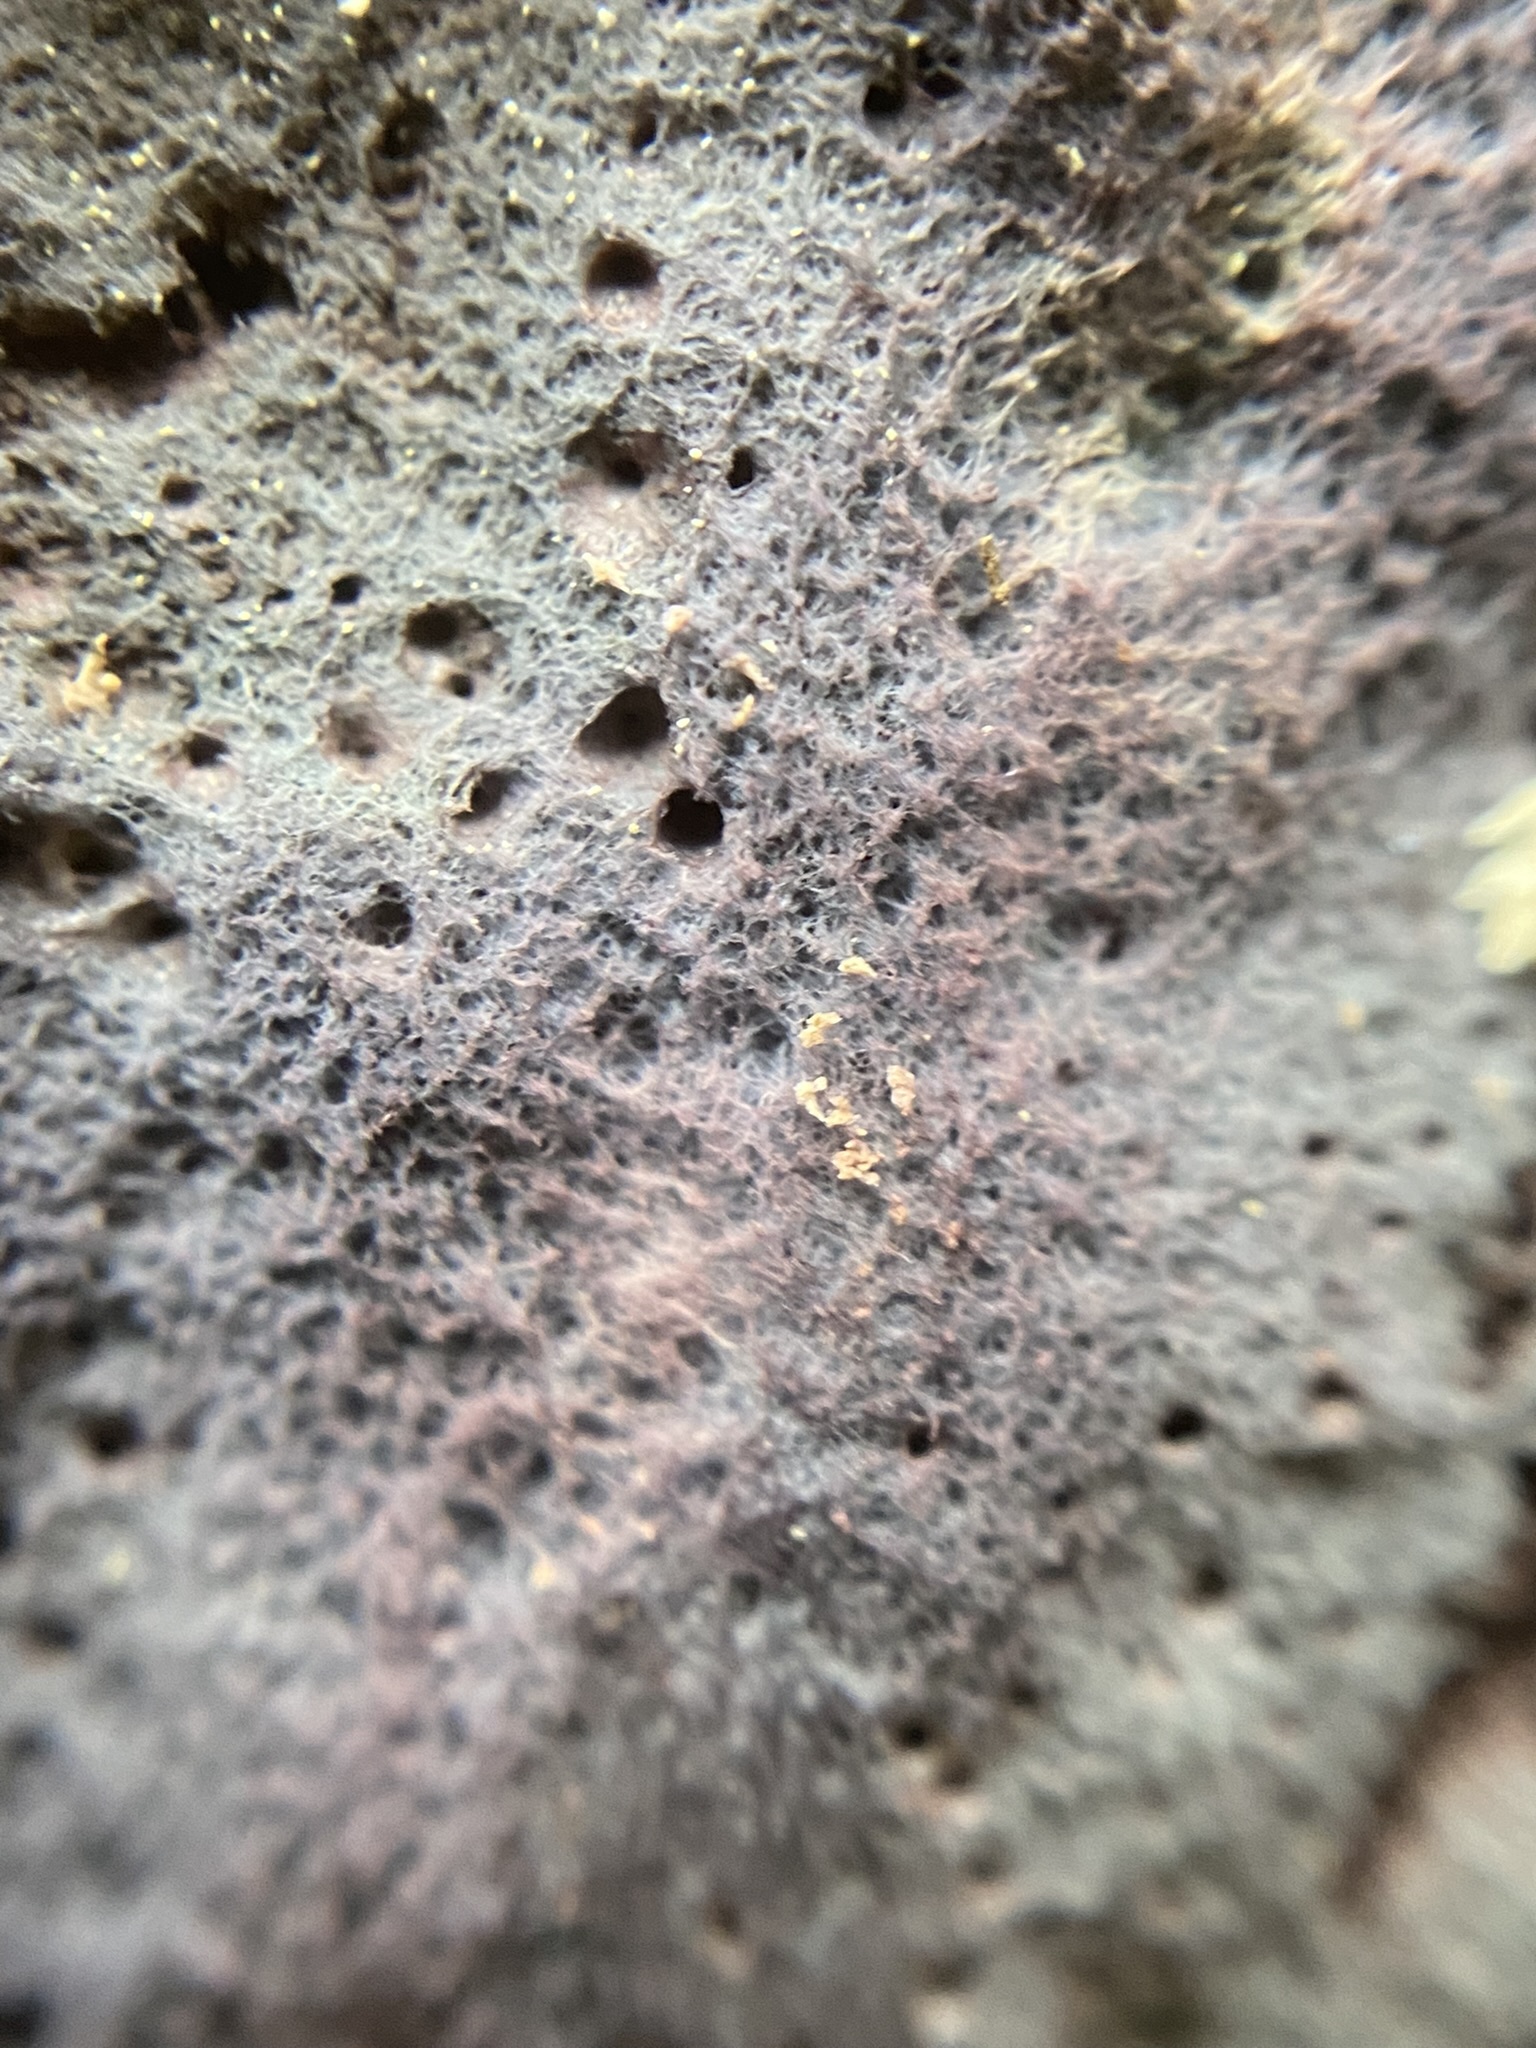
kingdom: Fungi
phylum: Basidiomycota
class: Agaricomycetes
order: Corticiales
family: Punctulariaceae
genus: Punctularia
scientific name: Punctularia atropurpurascens
